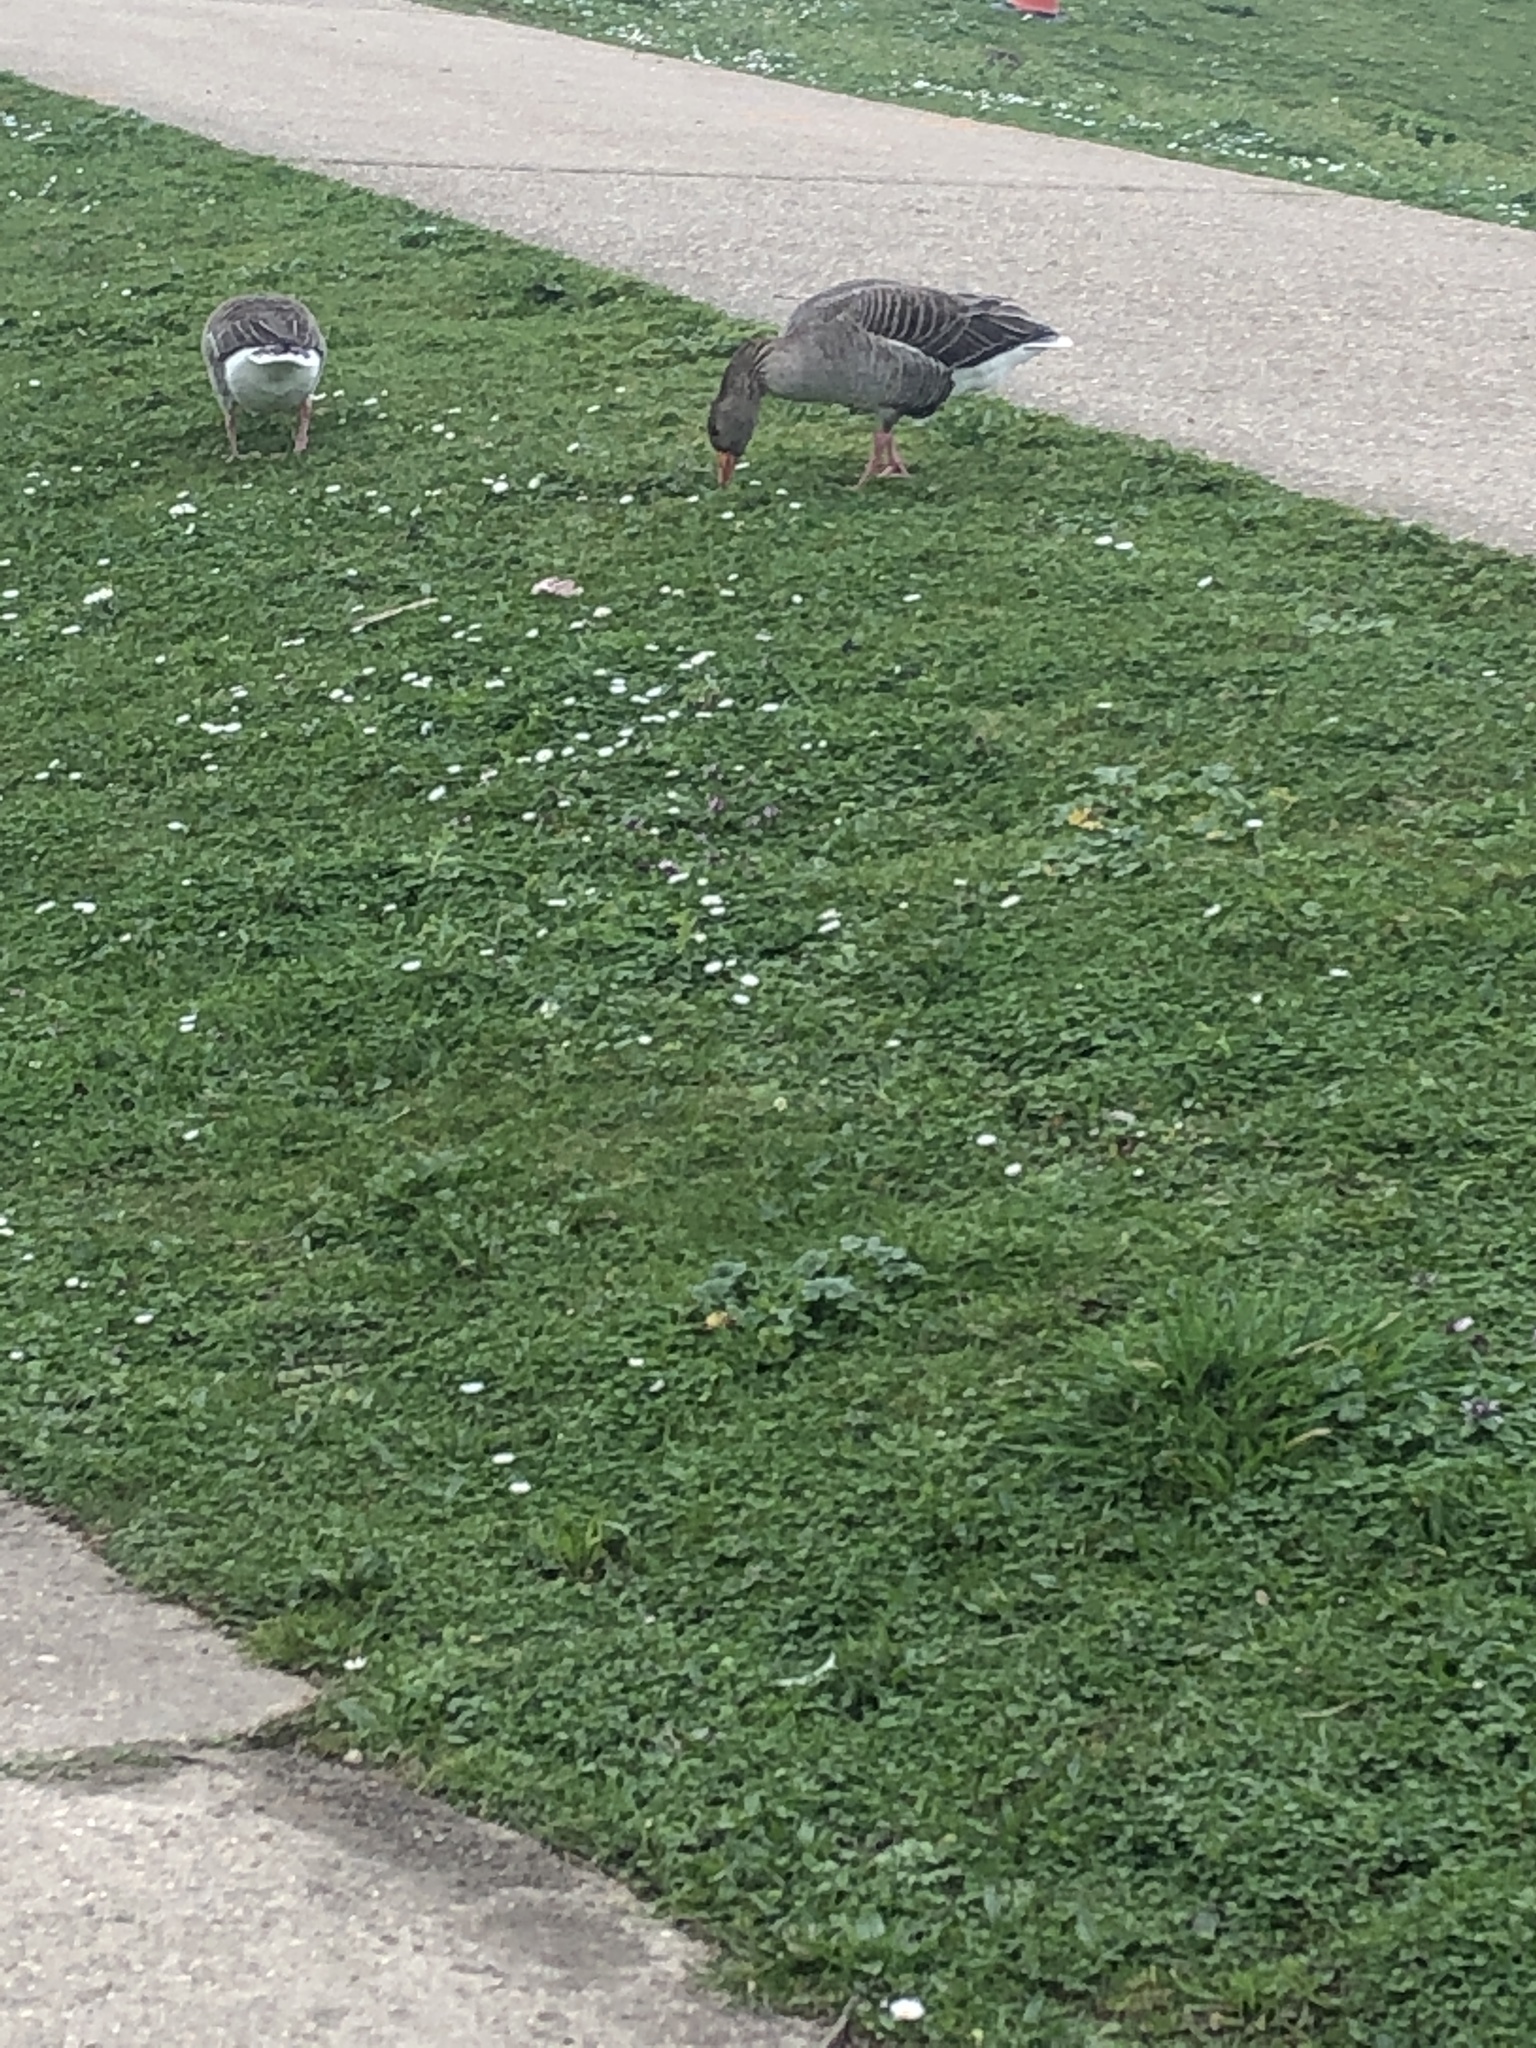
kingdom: Animalia
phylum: Chordata
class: Aves
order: Anseriformes
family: Anatidae
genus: Anser
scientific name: Anser anser
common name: Greylag goose
